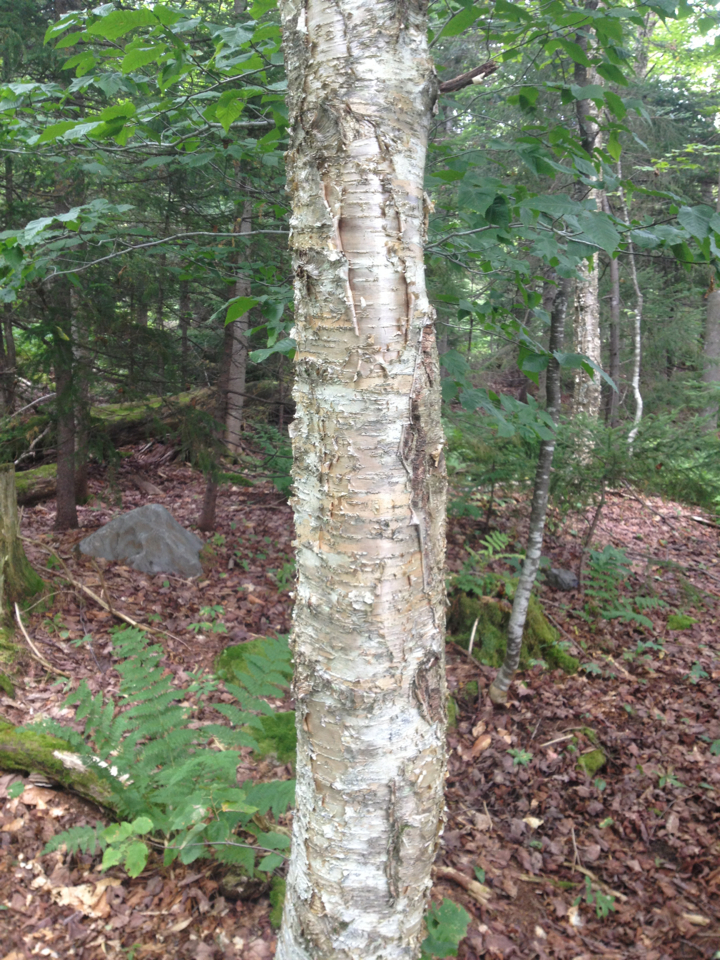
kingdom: Plantae
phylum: Tracheophyta
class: Magnoliopsida
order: Fagales
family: Betulaceae
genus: Betula
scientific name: Betula alleghaniensis
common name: Yellow birch
